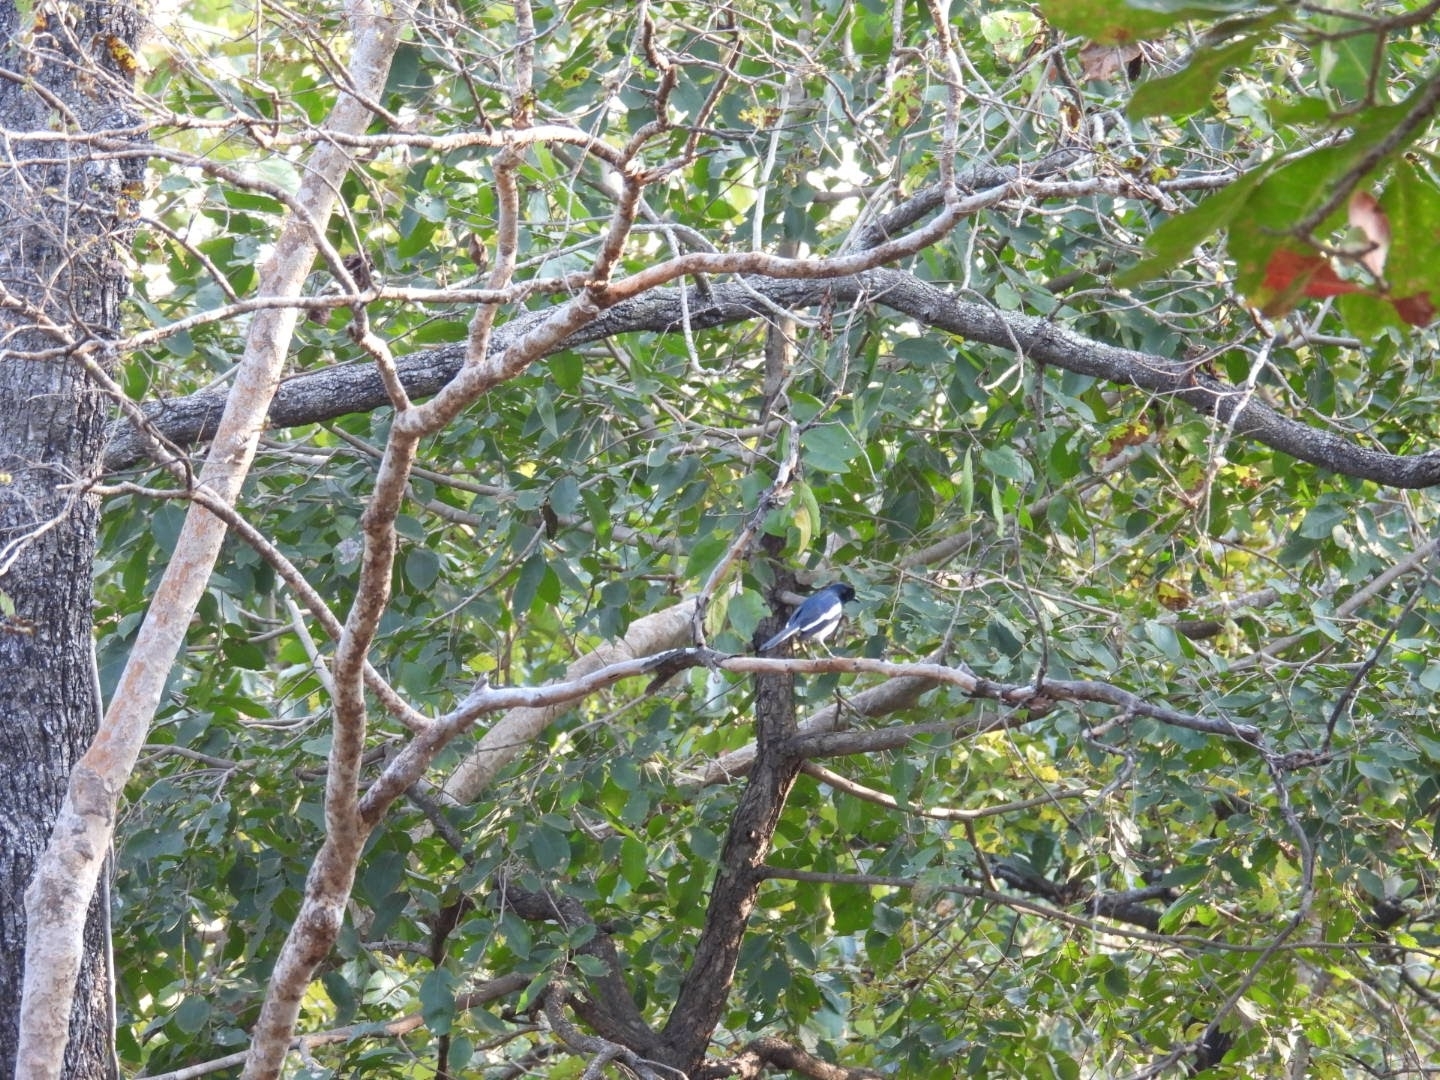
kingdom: Animalia
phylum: Chordata
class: Aves
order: Passeriformes
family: Muscicapidae
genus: Copsychus
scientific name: Copsychus saularis
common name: Oriental magpie-robin
